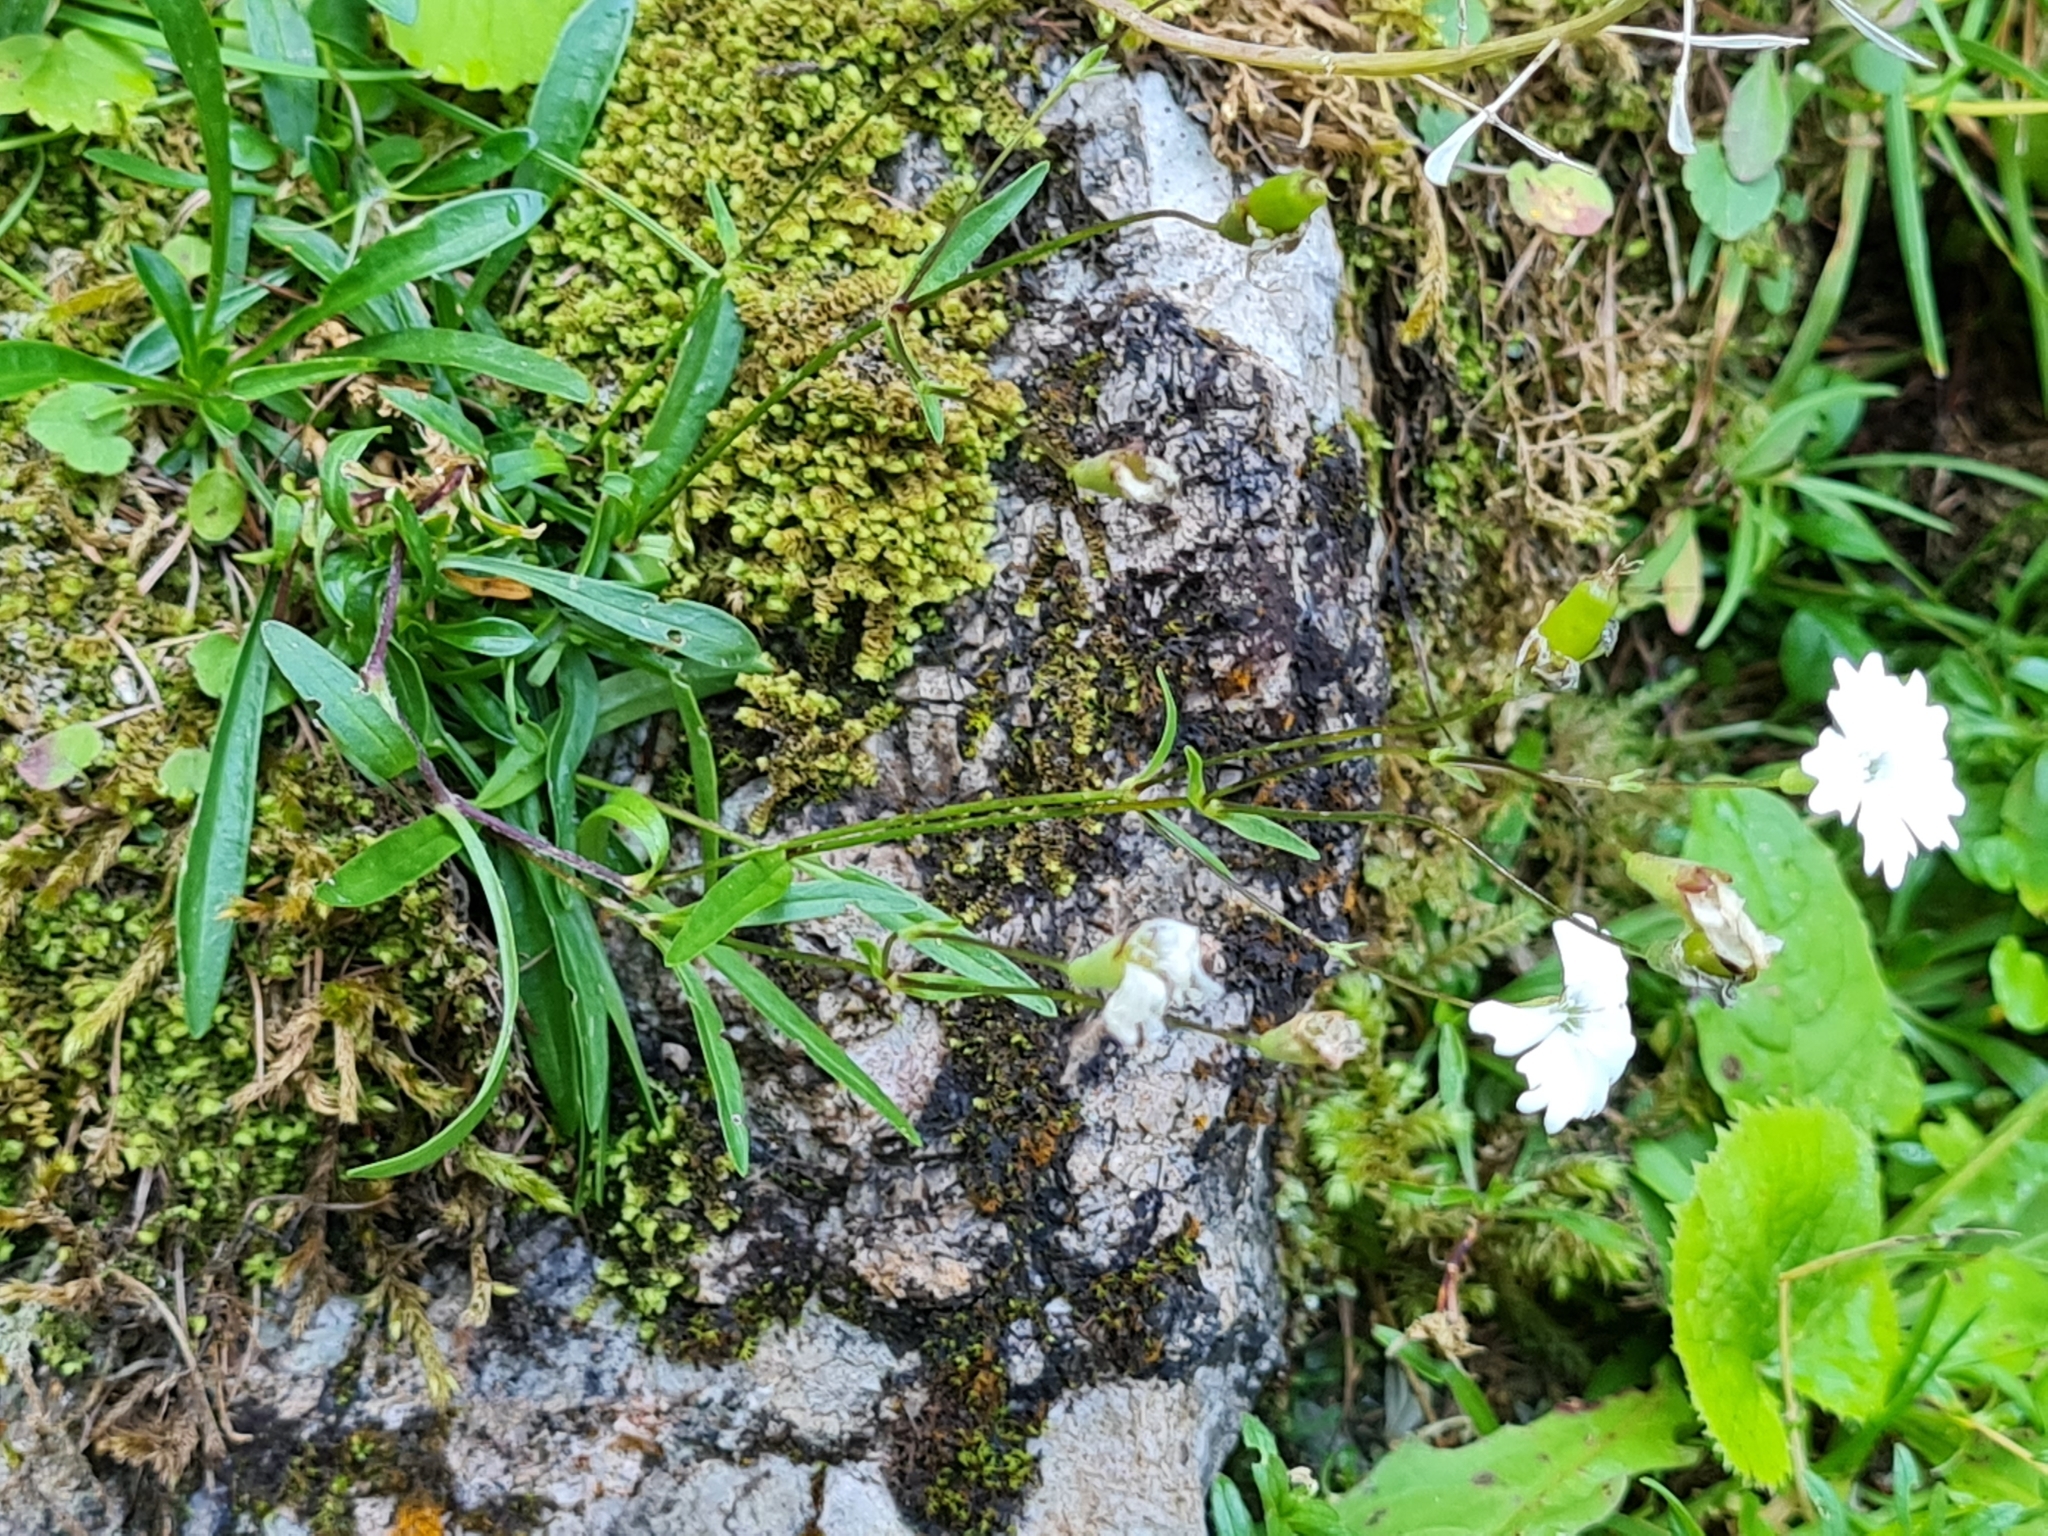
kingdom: Plantae
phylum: Tracheophyta
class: Magnoliopsida
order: Caryophyllales
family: Caryophyllaceae
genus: Heliosperma
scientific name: Heliosperma alpestre
